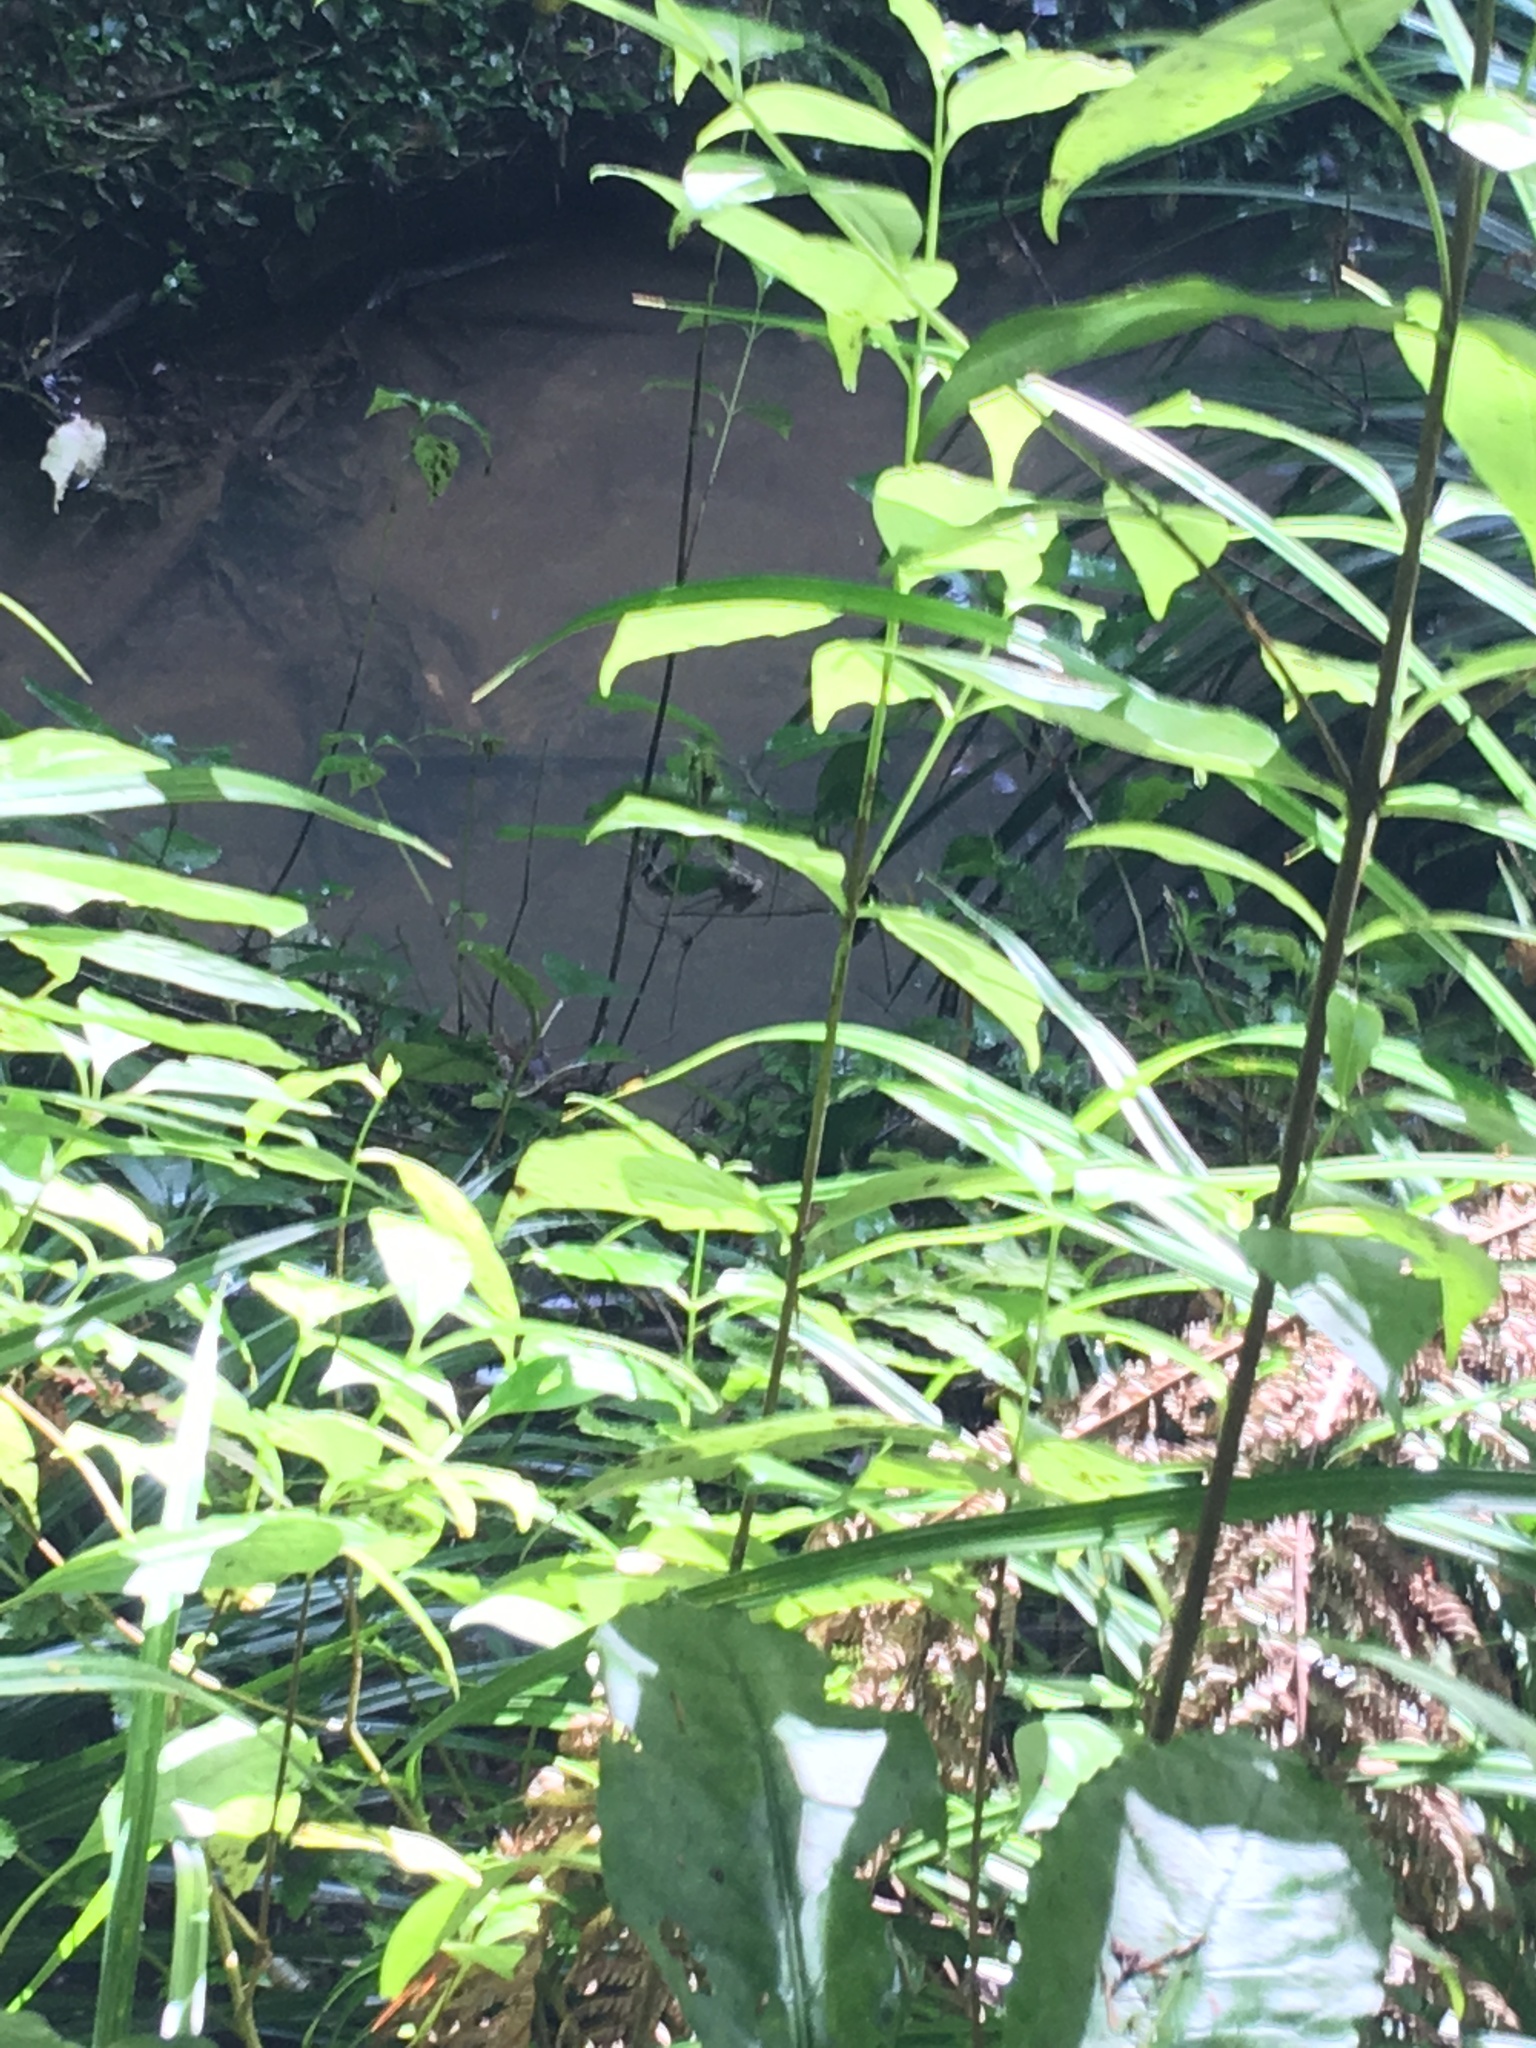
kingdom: Plantae
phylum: Tracheophyta
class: Magnoliopsida
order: Gentianales
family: Loganiaceae
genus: Geniostoma
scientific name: Geniostoma ligustrifolium
